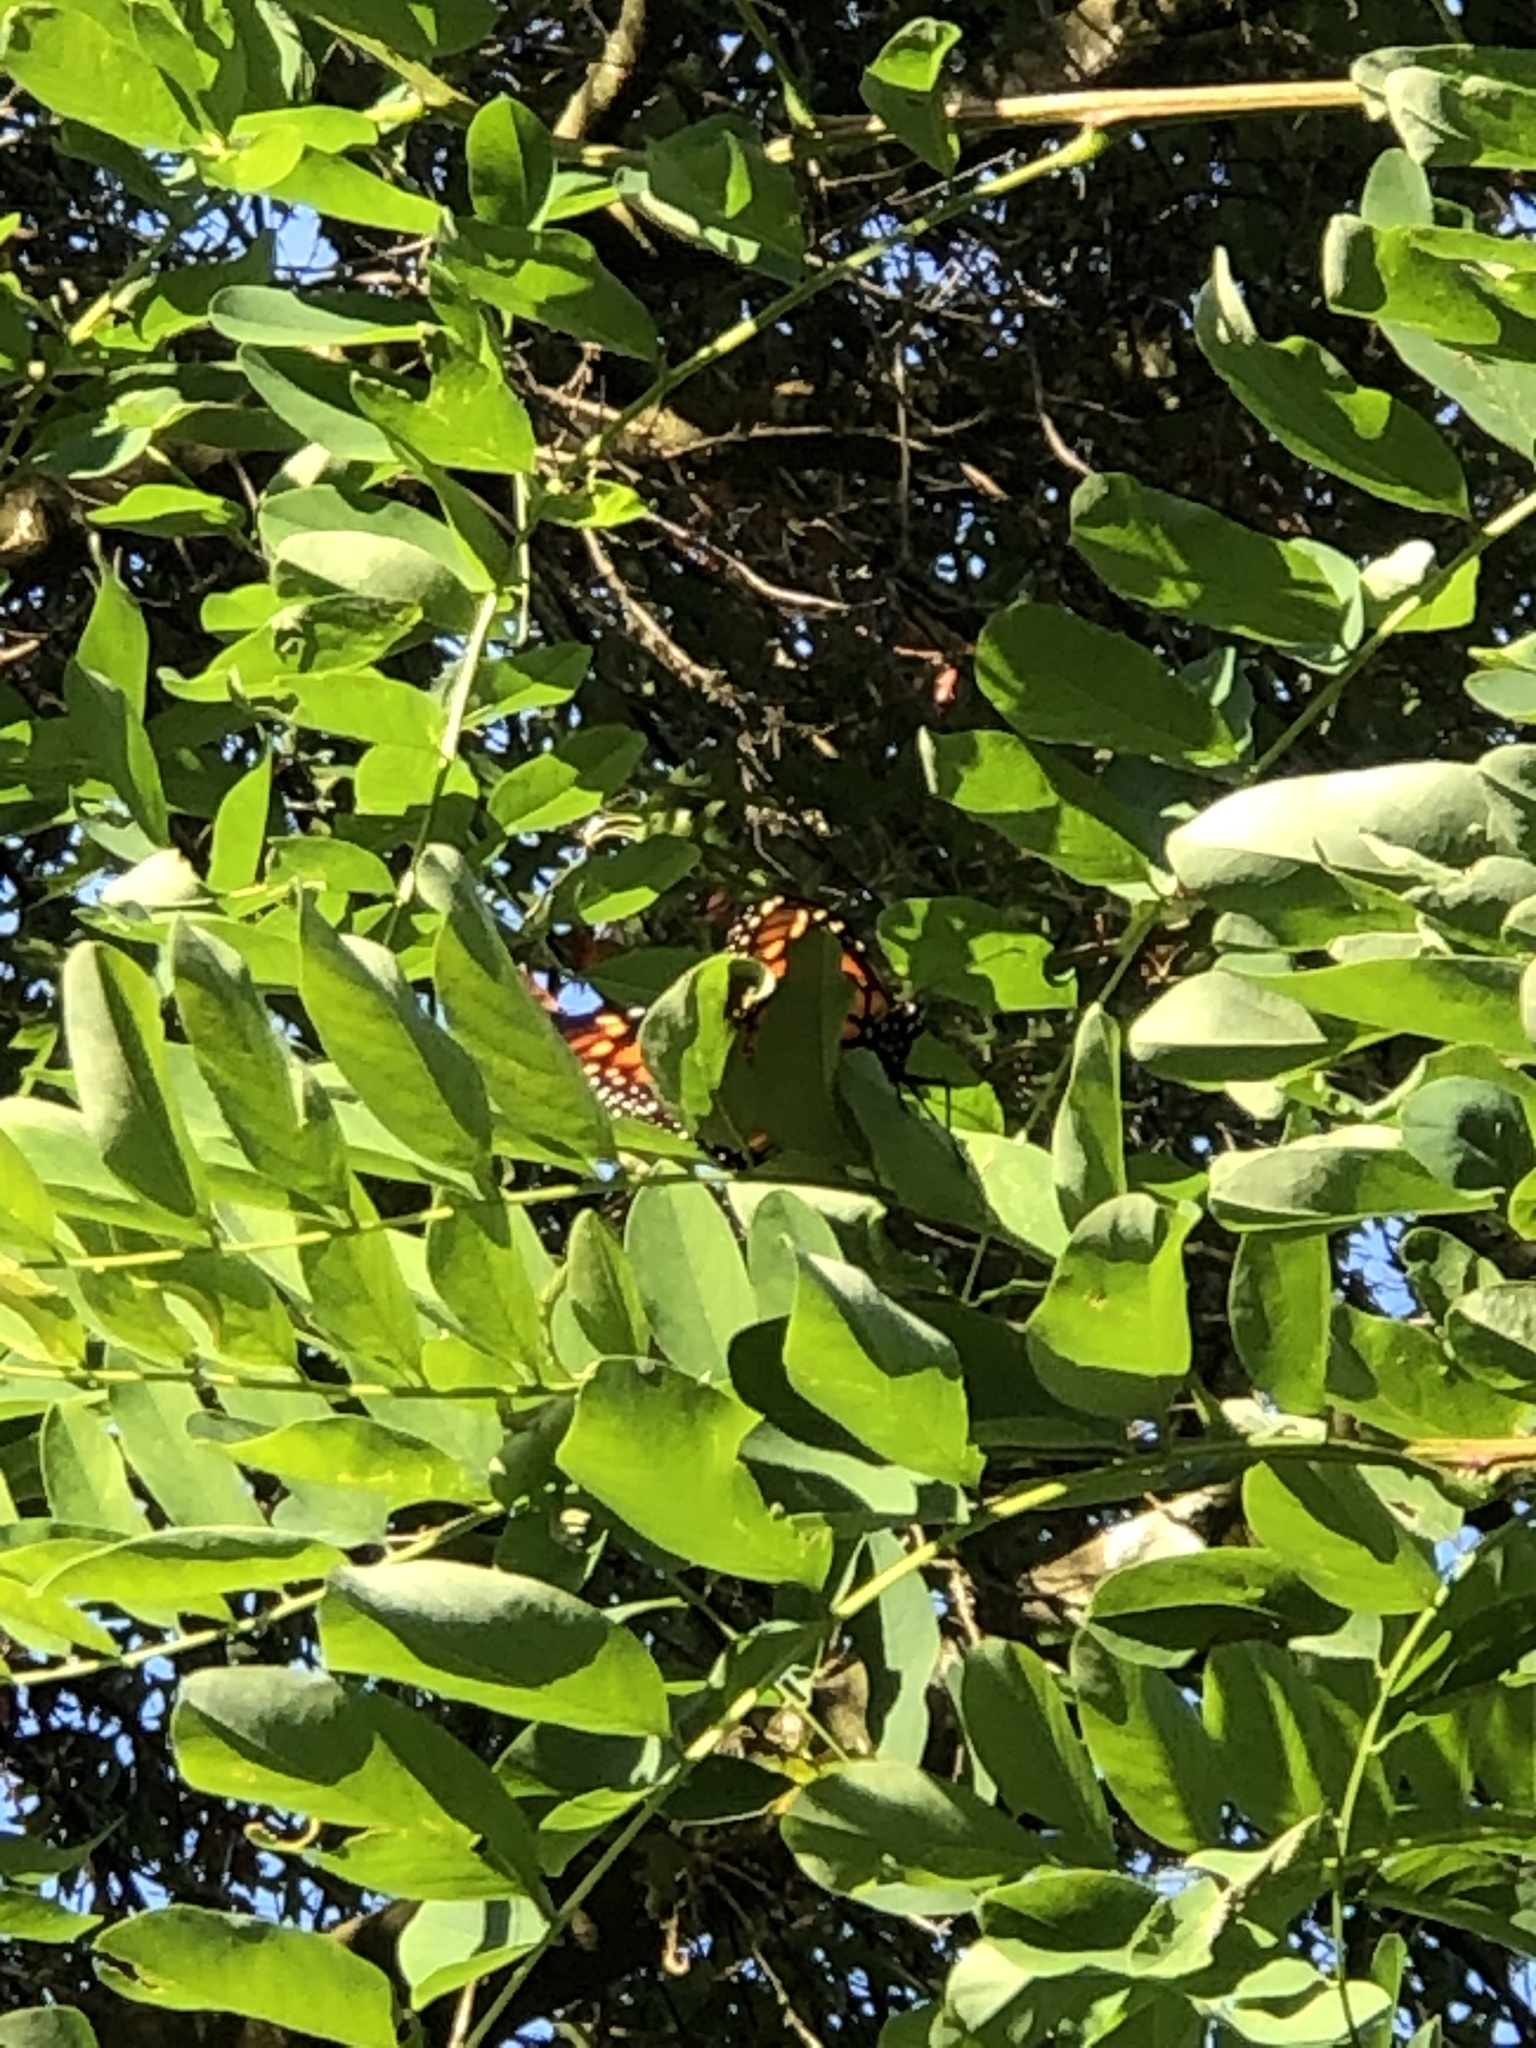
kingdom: Animalia
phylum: Arthropoda
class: Insecta
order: Lepidoptera
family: Nymphalidae
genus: Danaus
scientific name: Danaus plexippus
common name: Monarch
